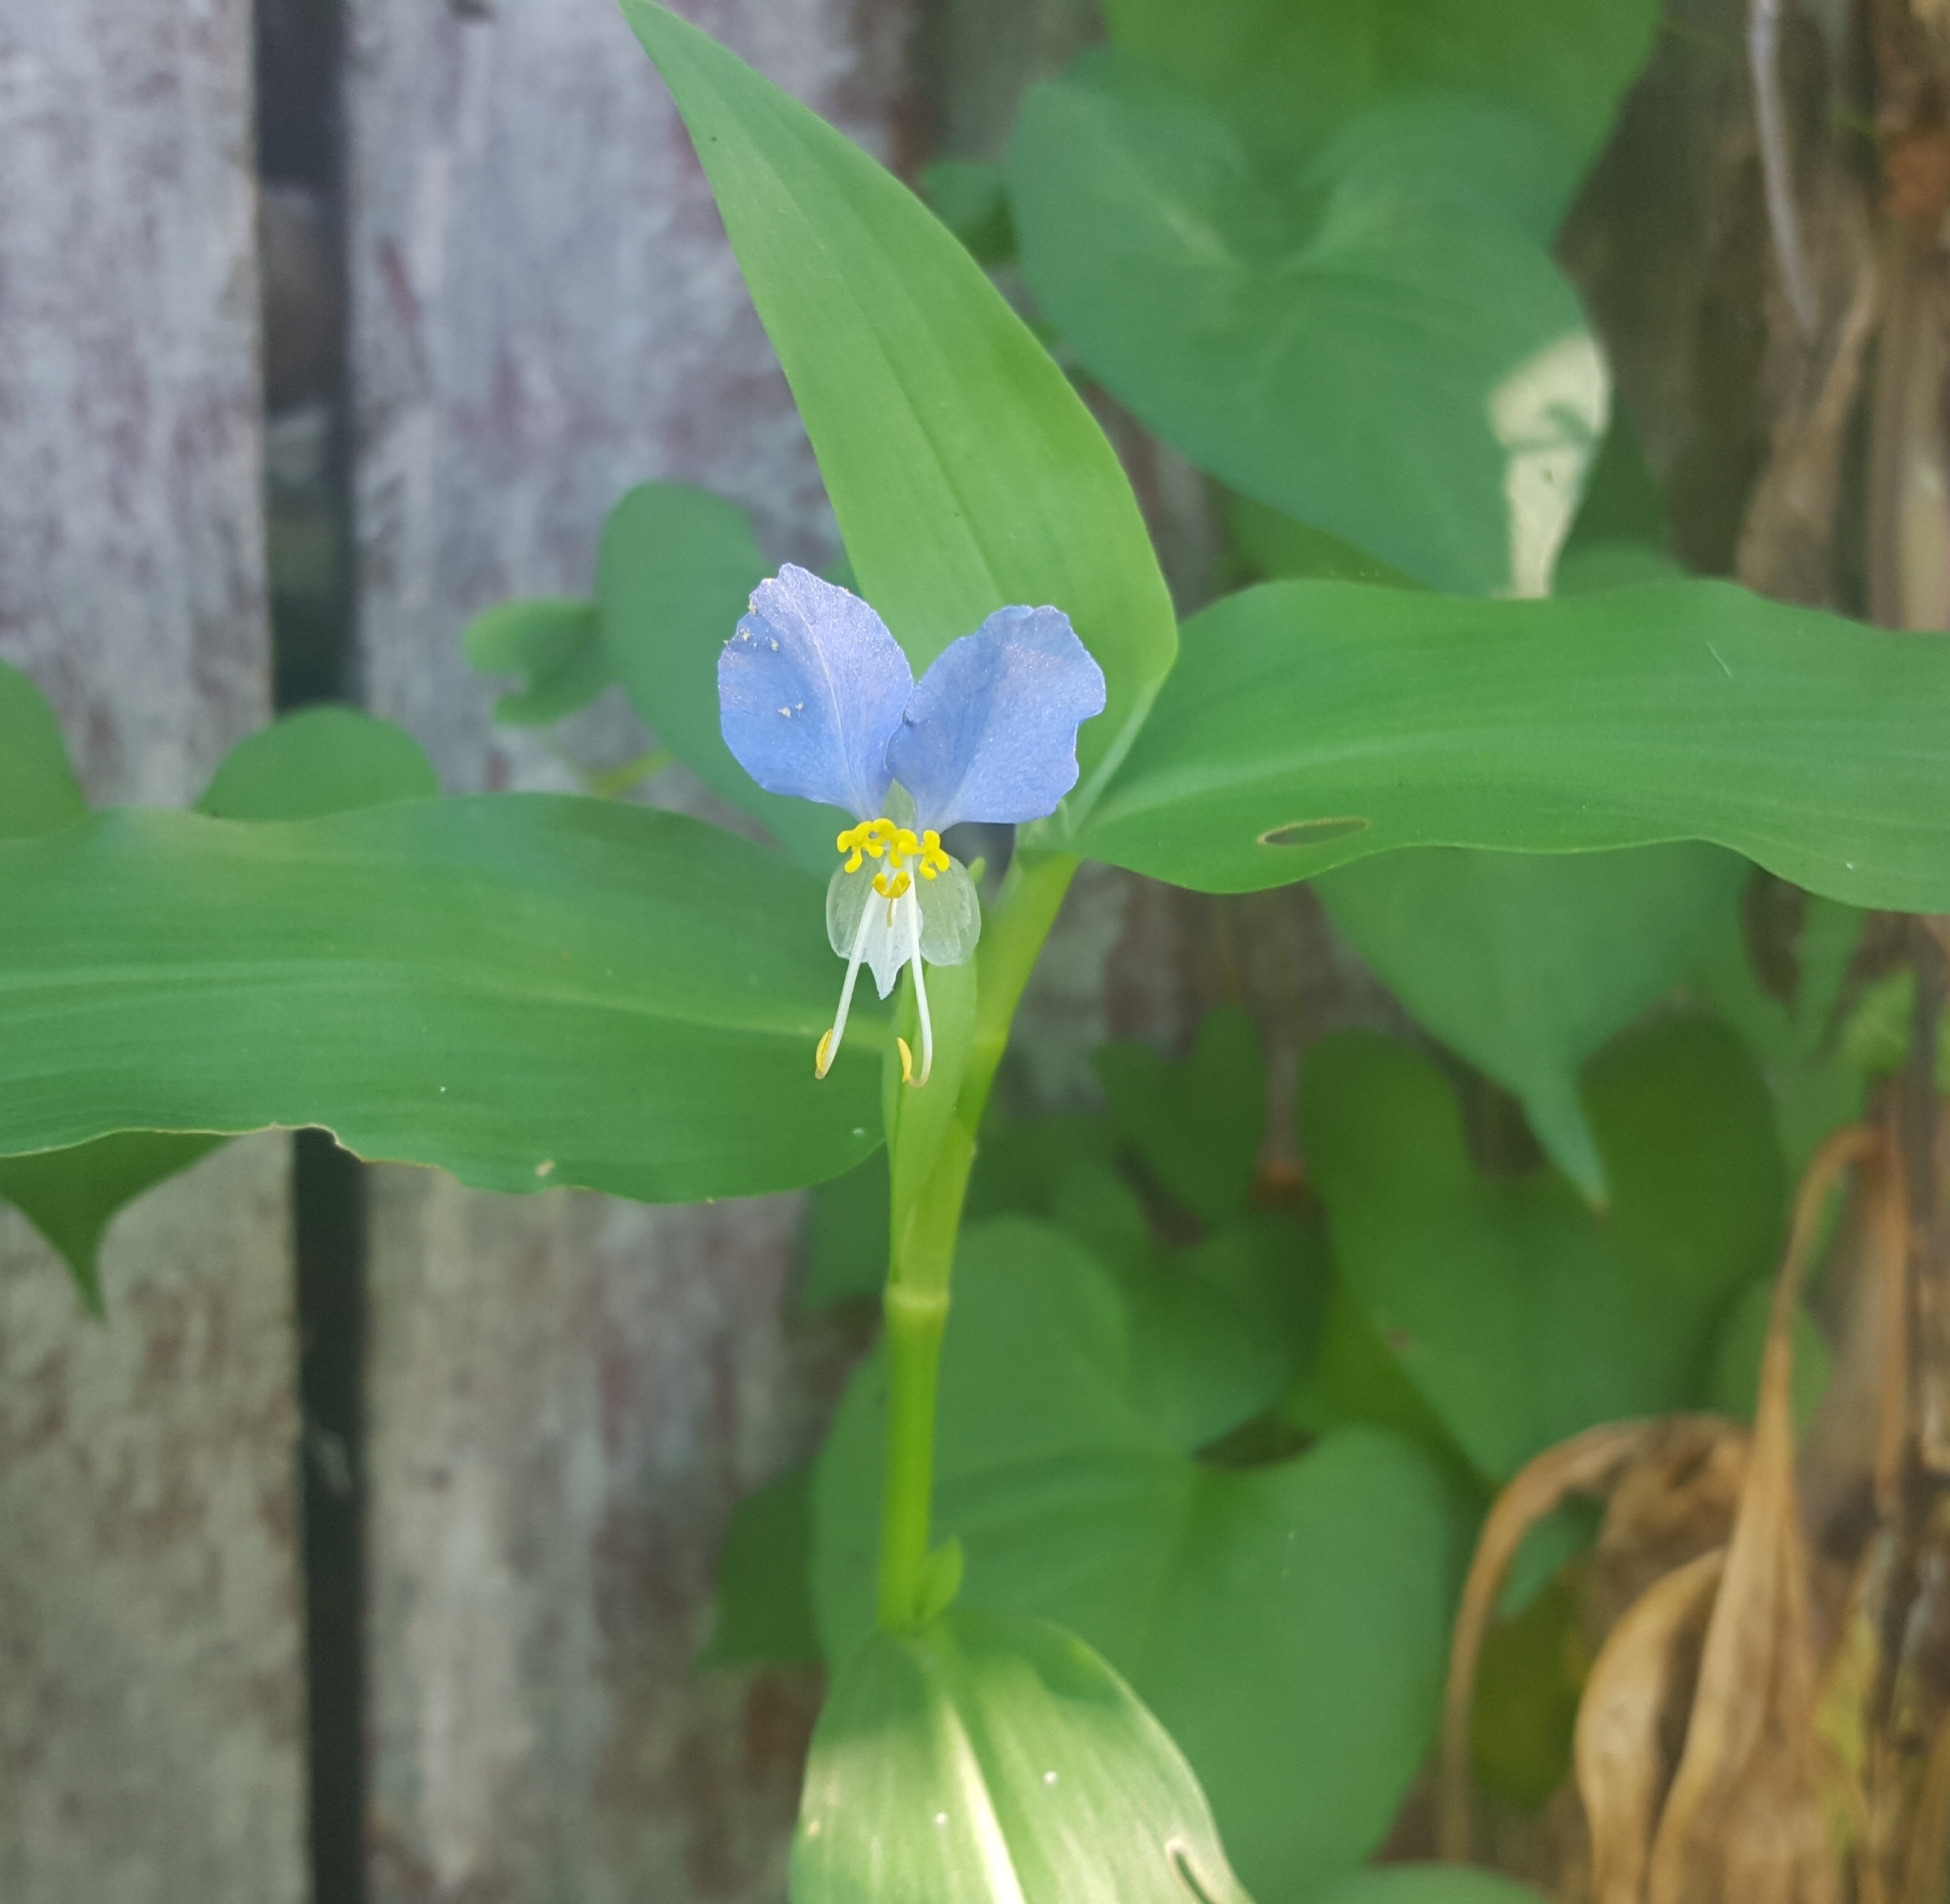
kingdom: Plantae
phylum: Tracheophyta
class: Liliopsida
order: Commelinales
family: Commelinaceae
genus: Commelina
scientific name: Commelina communis
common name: Asiatic dayflower
